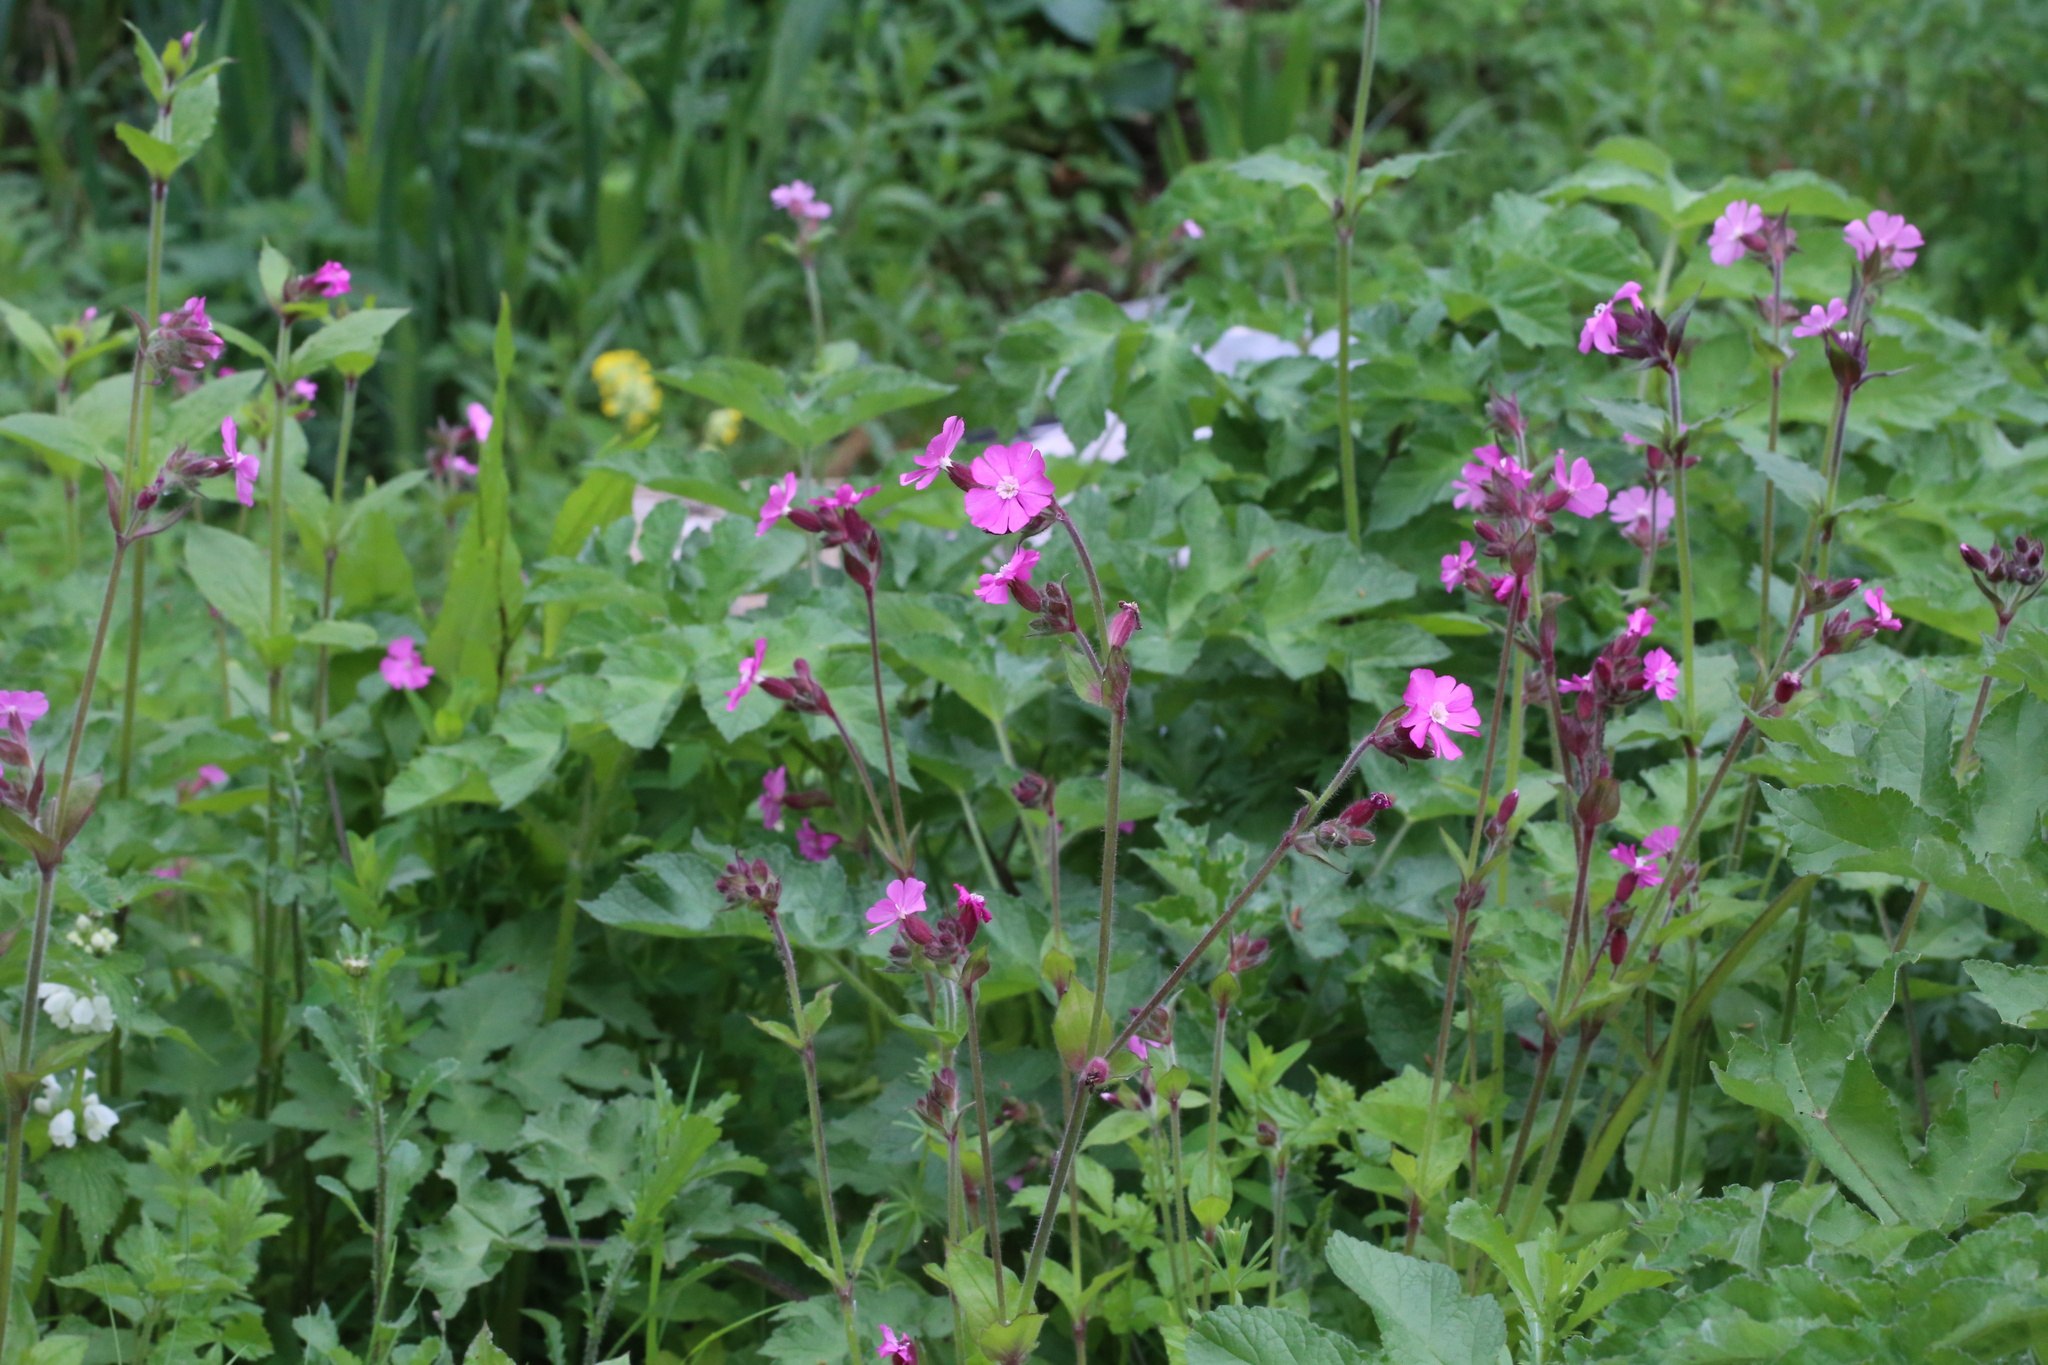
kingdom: Plantae
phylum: Tracheophyta
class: Magnoliopsida
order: Caryophyllales
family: Caryophyllaceae
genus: Silene
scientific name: Silene dioica
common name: Red campion
